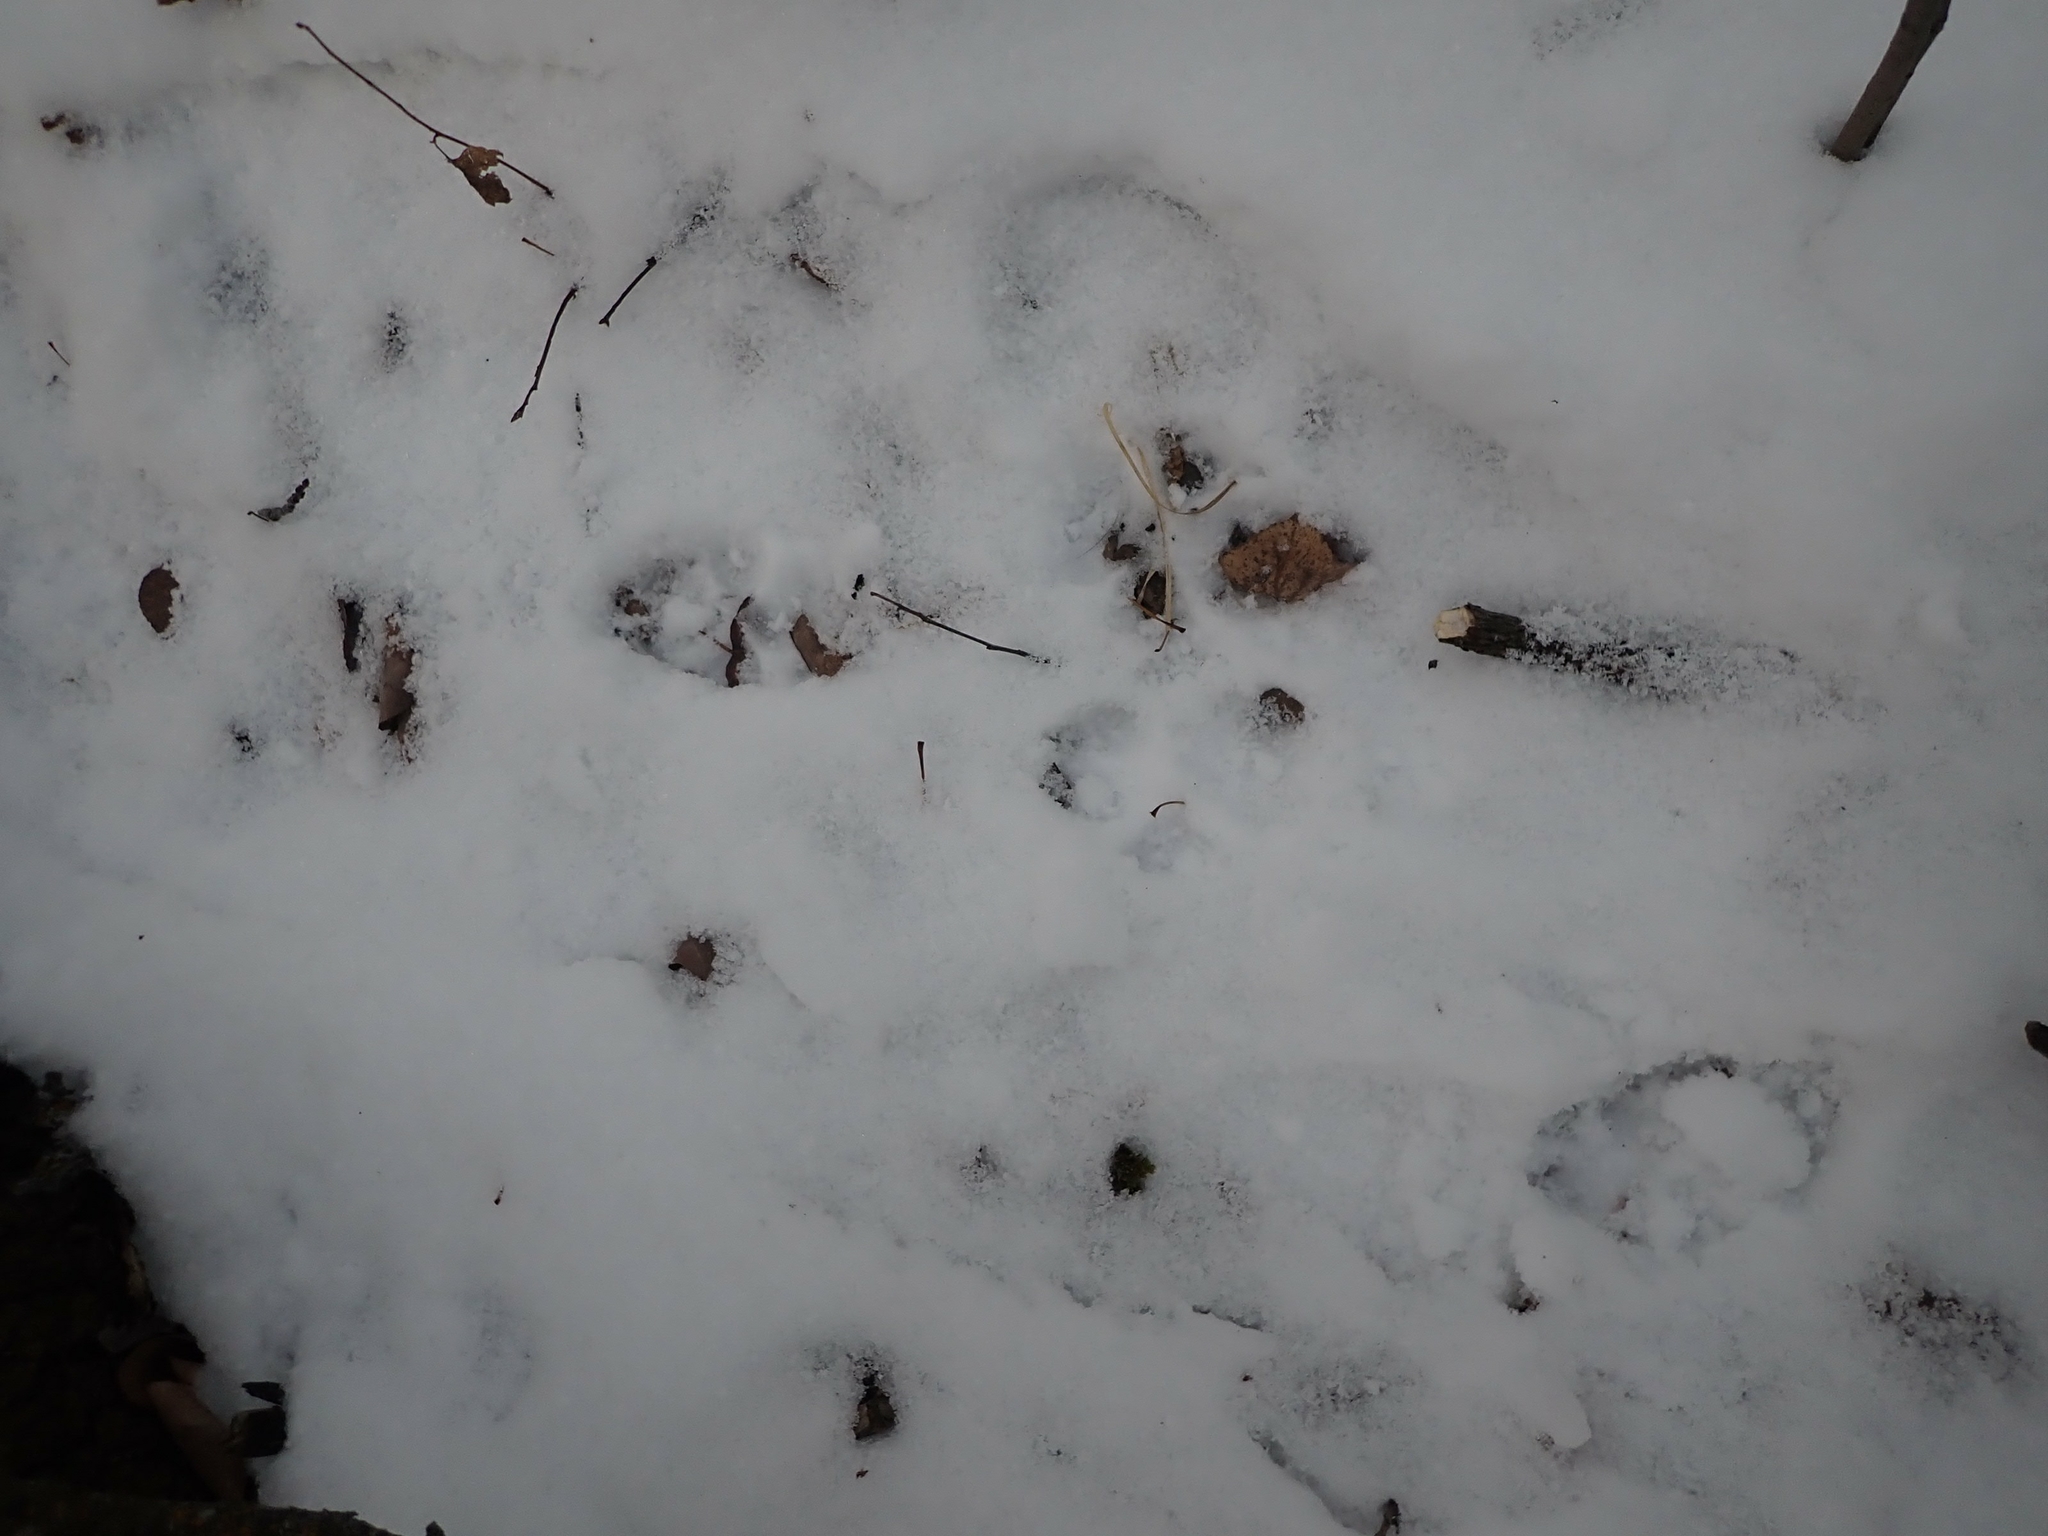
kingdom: Animalia
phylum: Chordata
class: Mammalia
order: Carnivora
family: Canidae
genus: Canis
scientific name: Canis latrans
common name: Coyote
